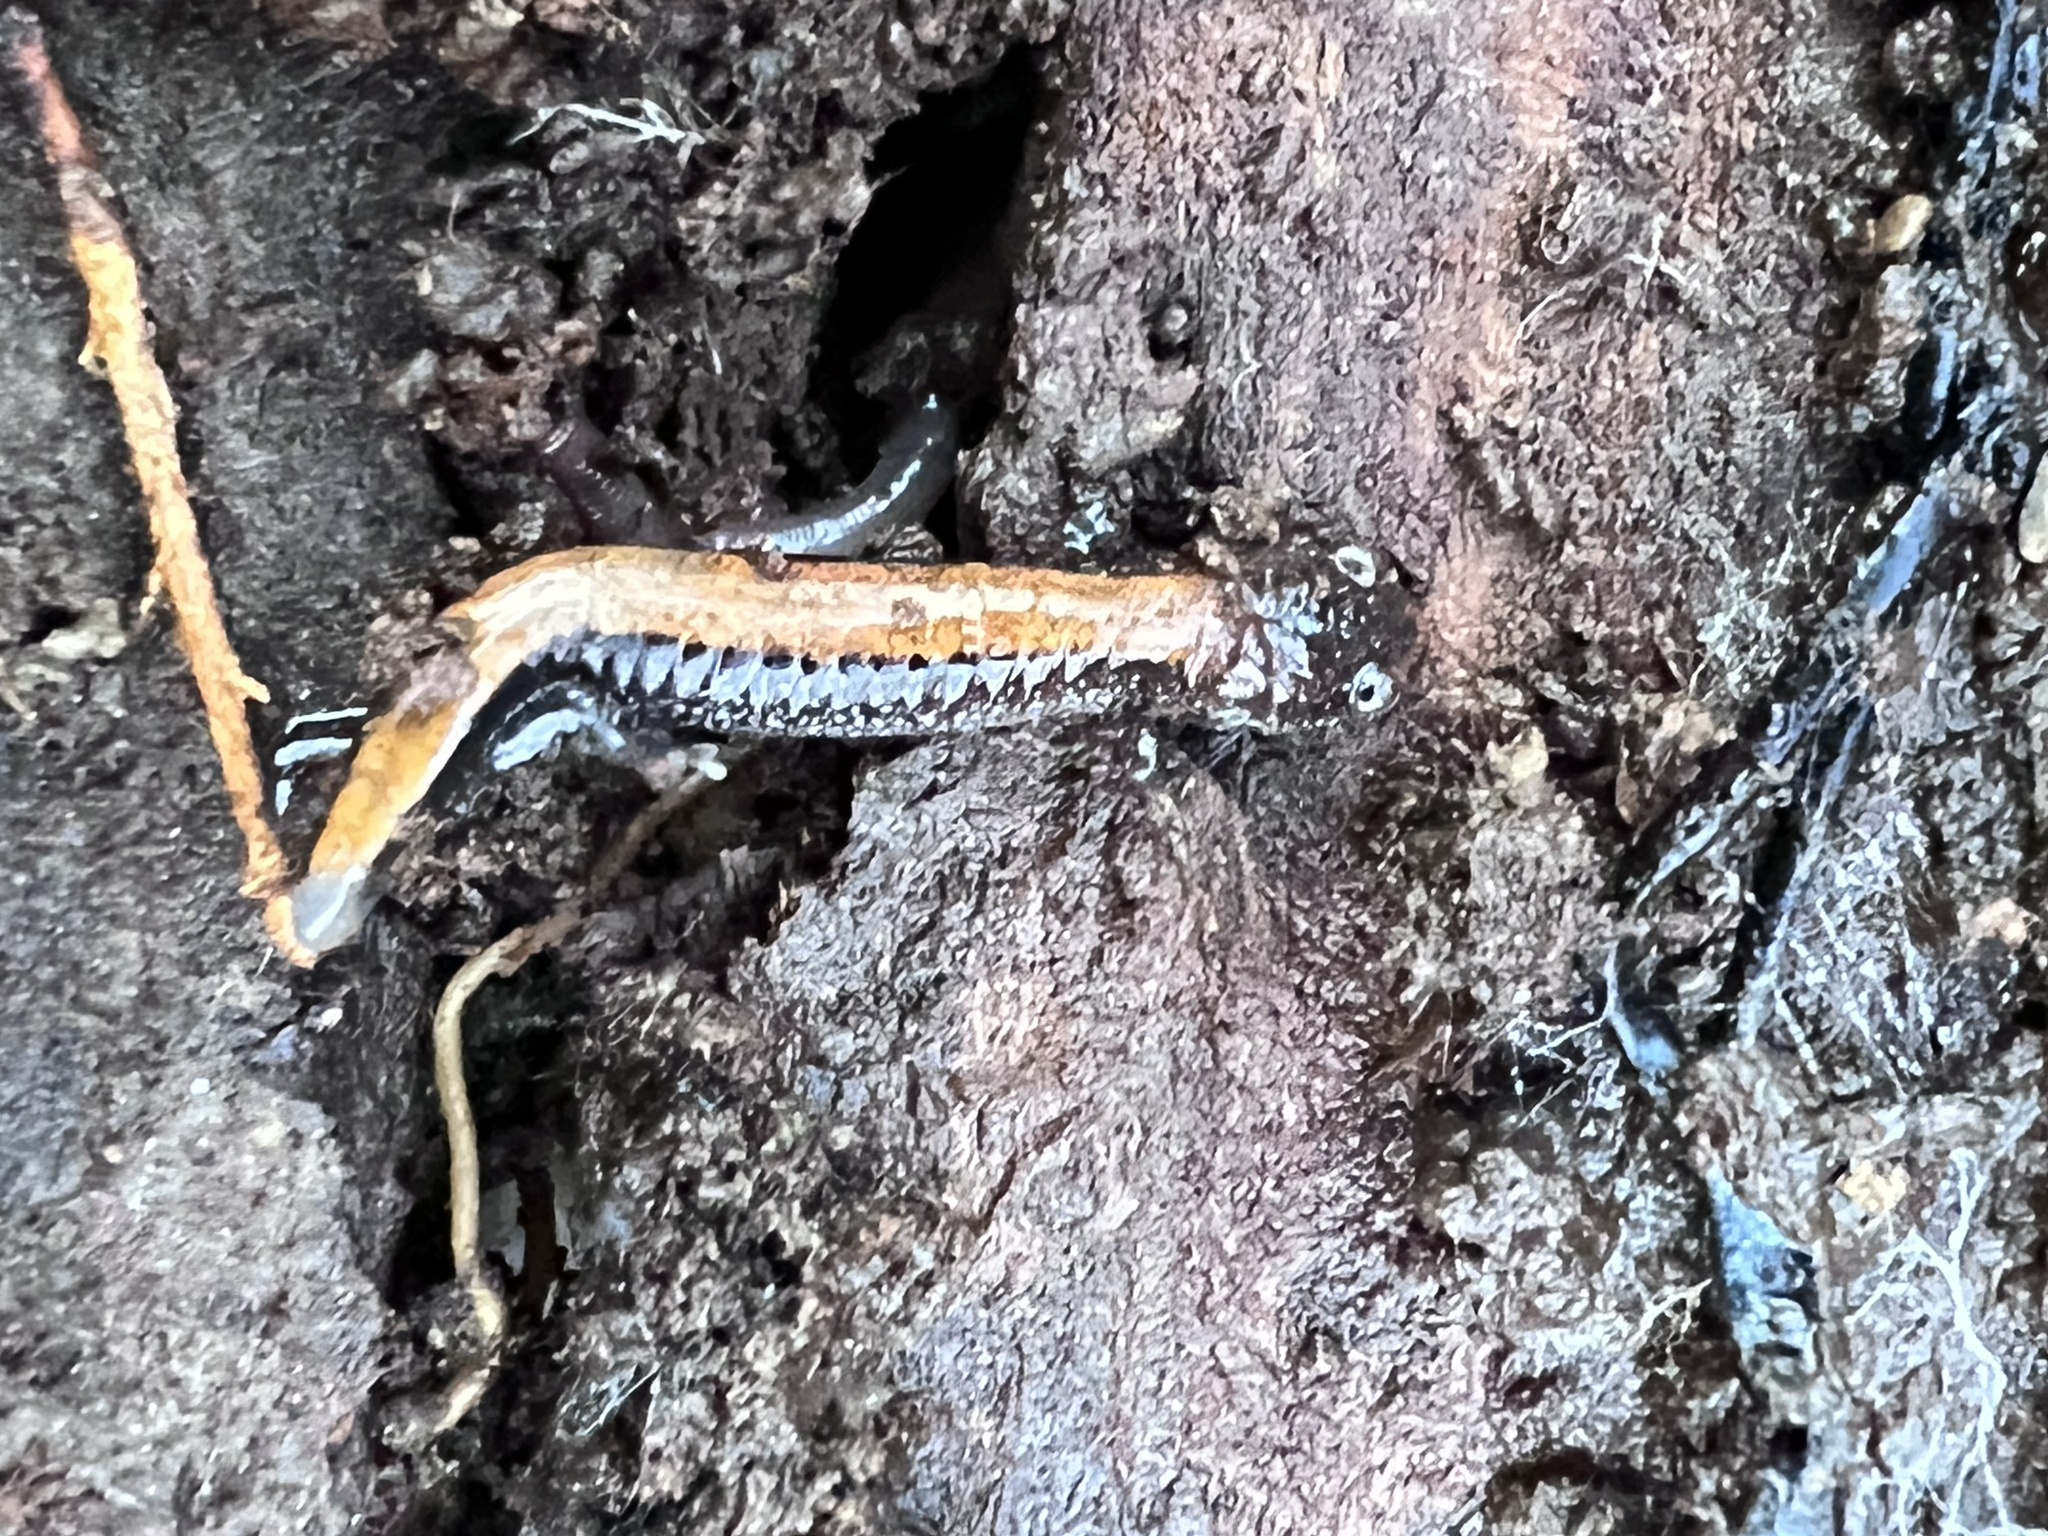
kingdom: Animalia
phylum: Chordata
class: Amphibia
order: Caudata
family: Plethodontidae
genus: Plethodon
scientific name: Plethodon cinereus
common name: Redback salamander
